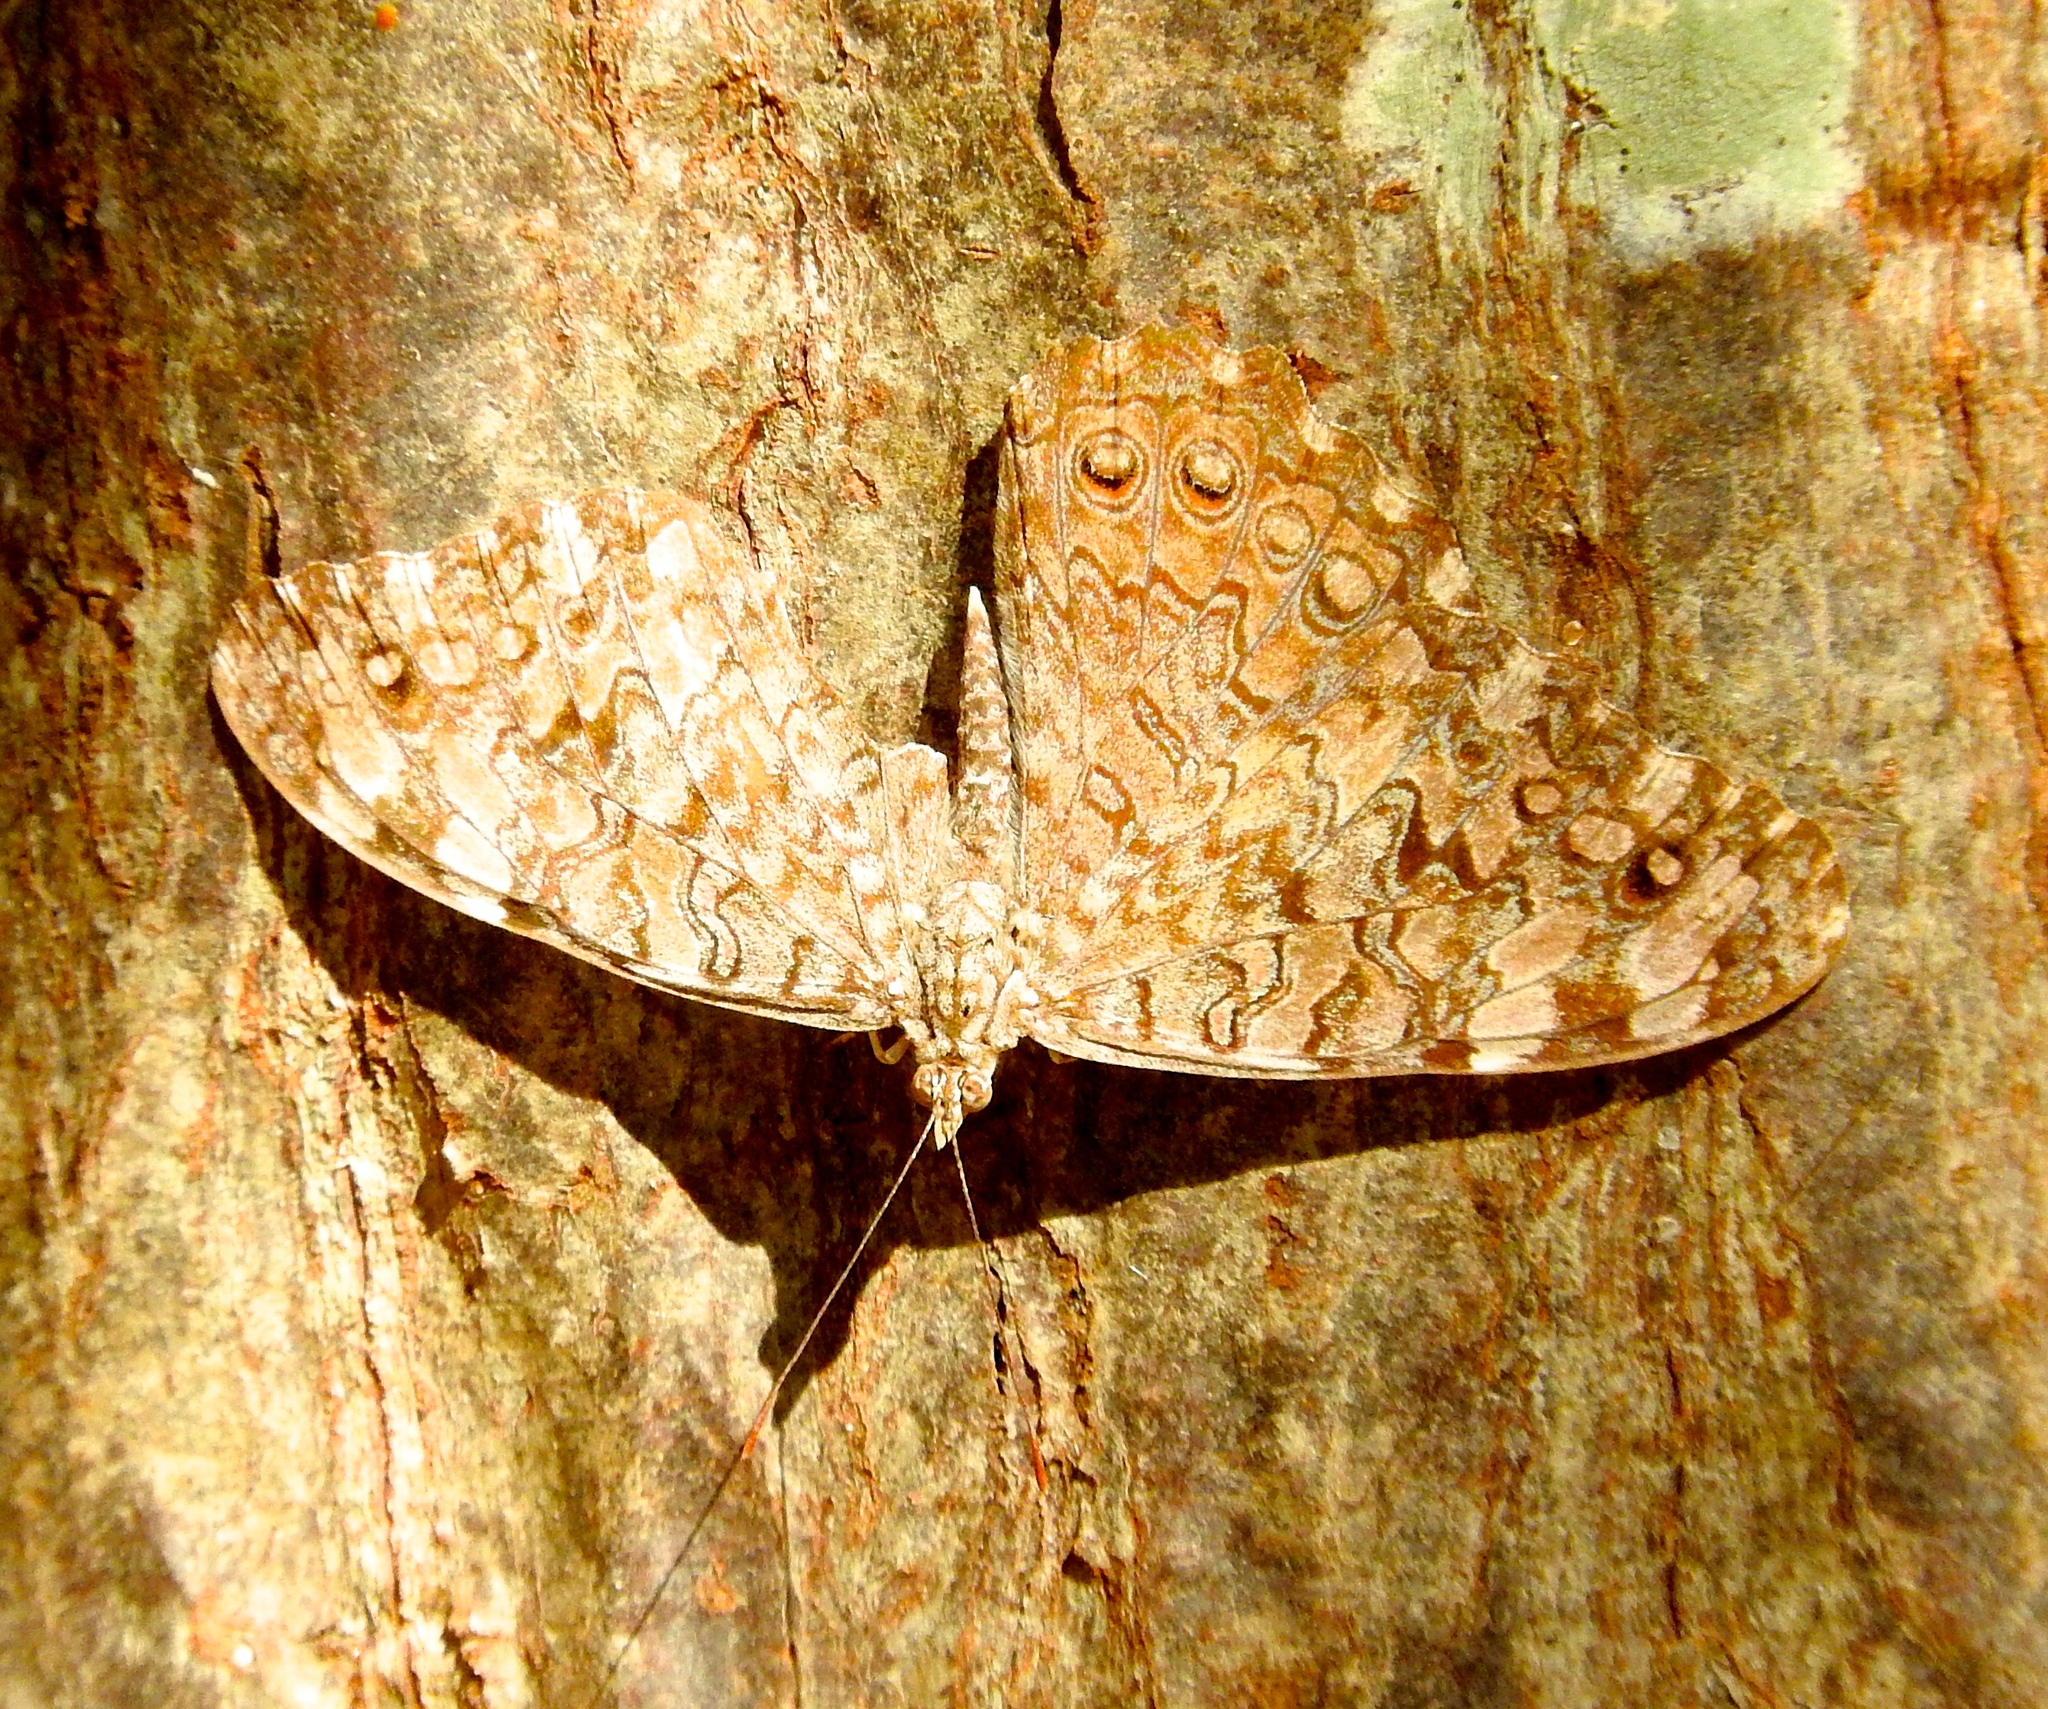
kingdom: Animalia
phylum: Arthropoda
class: Insecta
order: Lepidoptera
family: Nymphalidae
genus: Hamadryas
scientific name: Hamadryas februa
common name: Gray cracker
